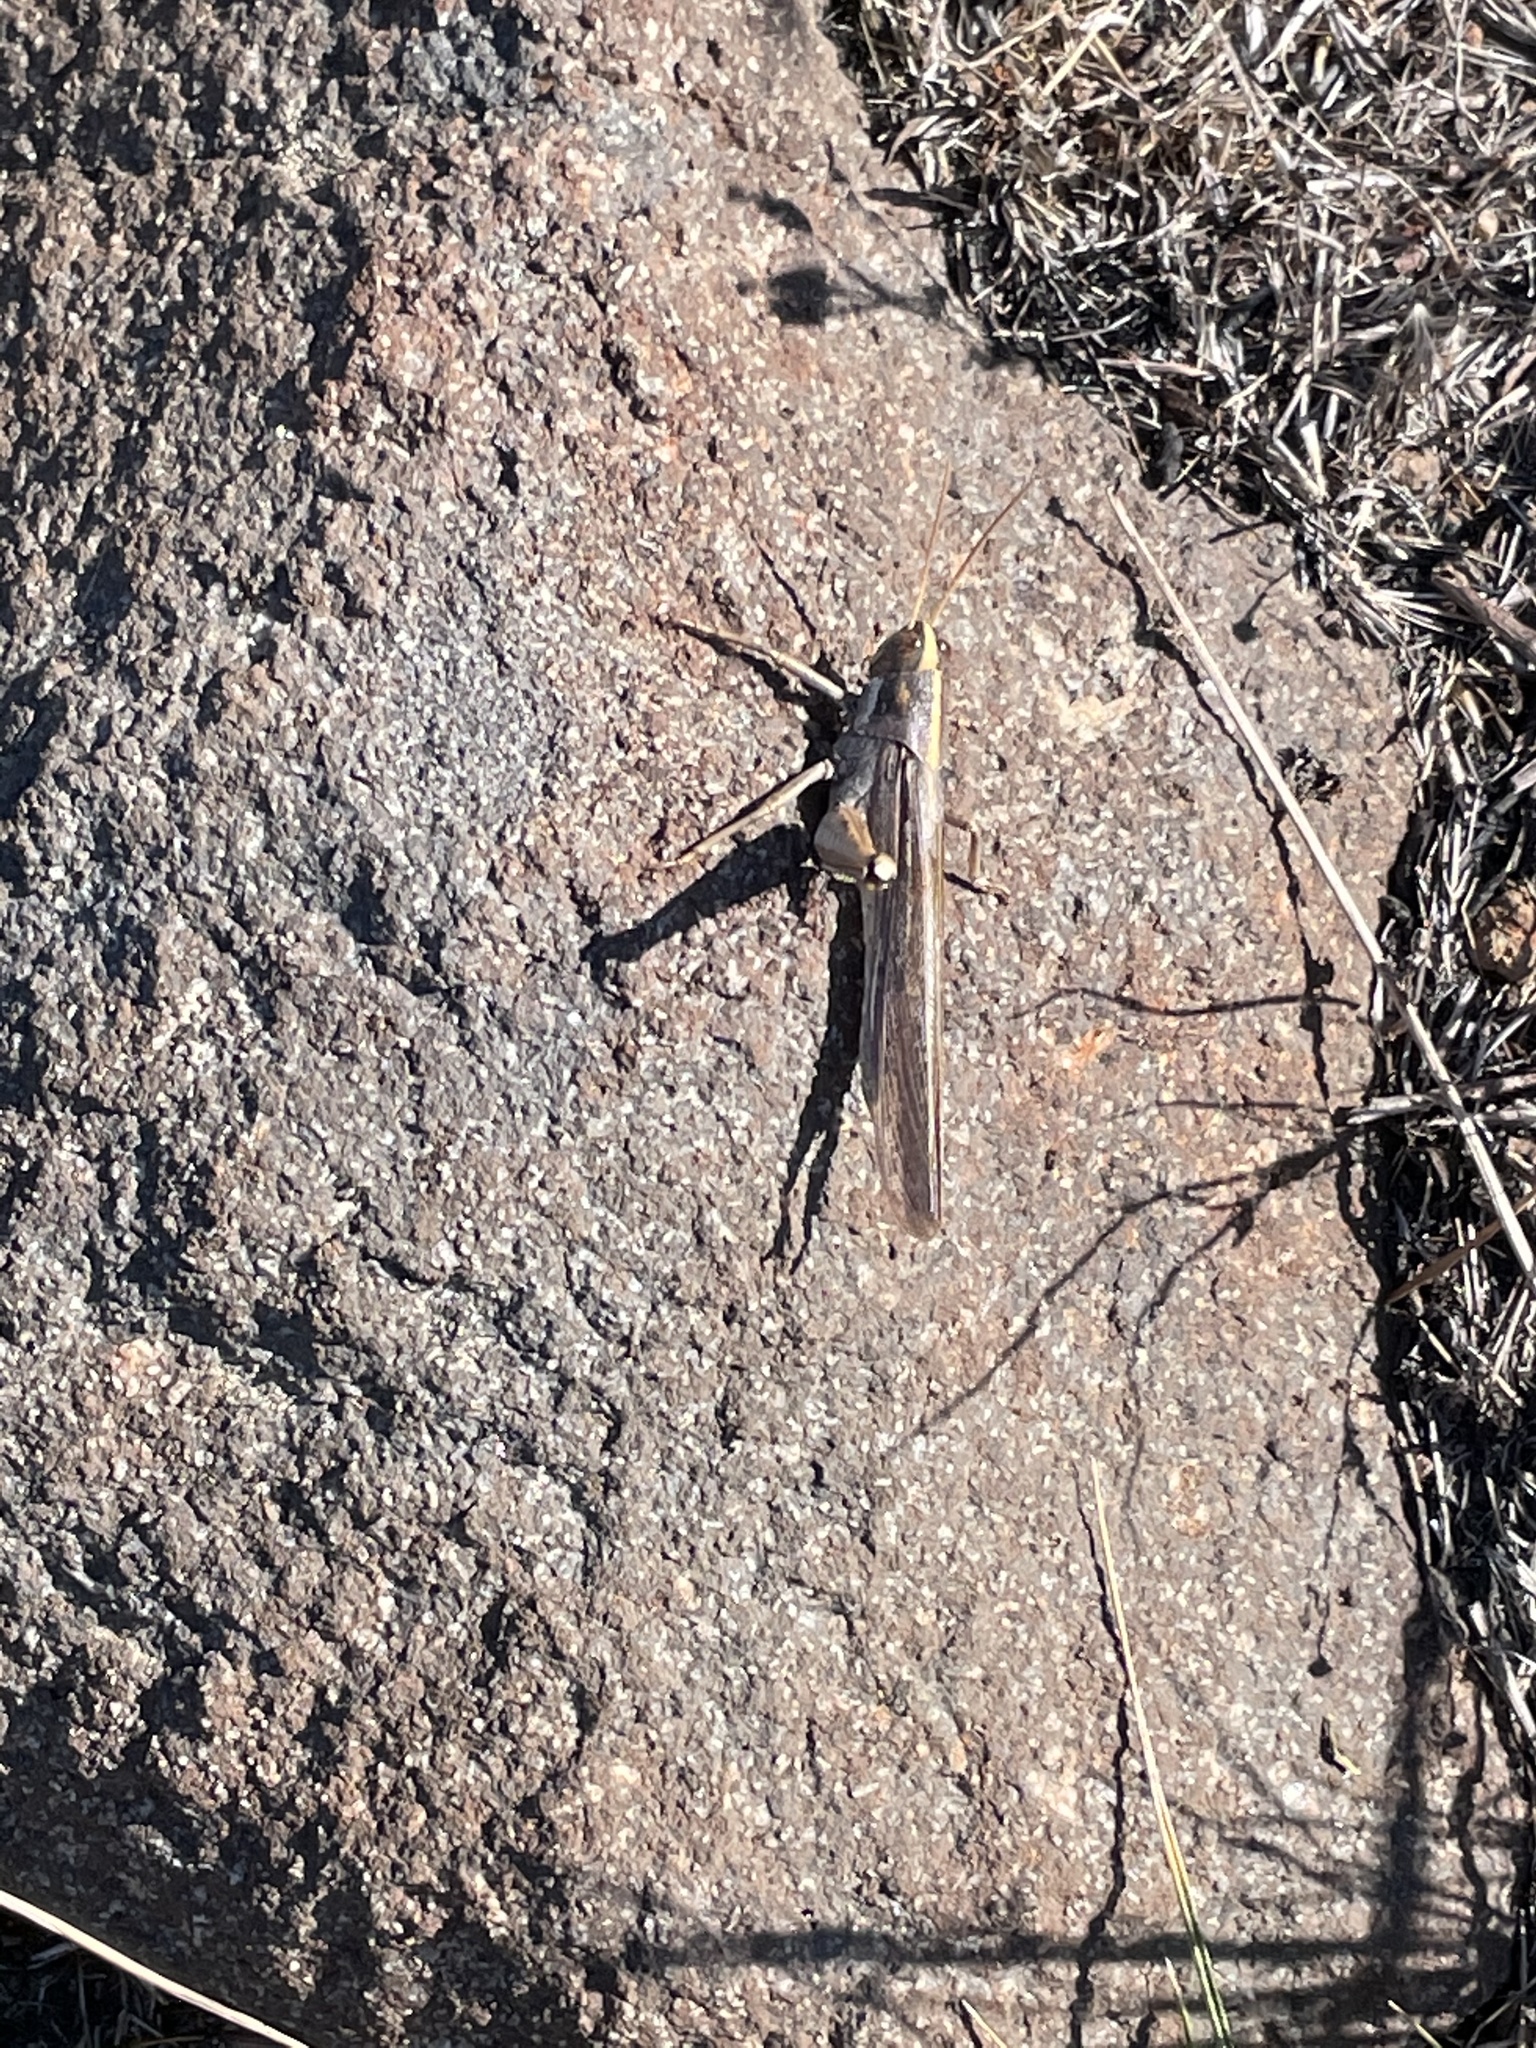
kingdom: Animalia
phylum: Arthropoda
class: Insecta
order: Orthoptera
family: Acrididae
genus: Schistocerca
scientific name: Schistocerca nitens
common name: Vagrant grasshopper
